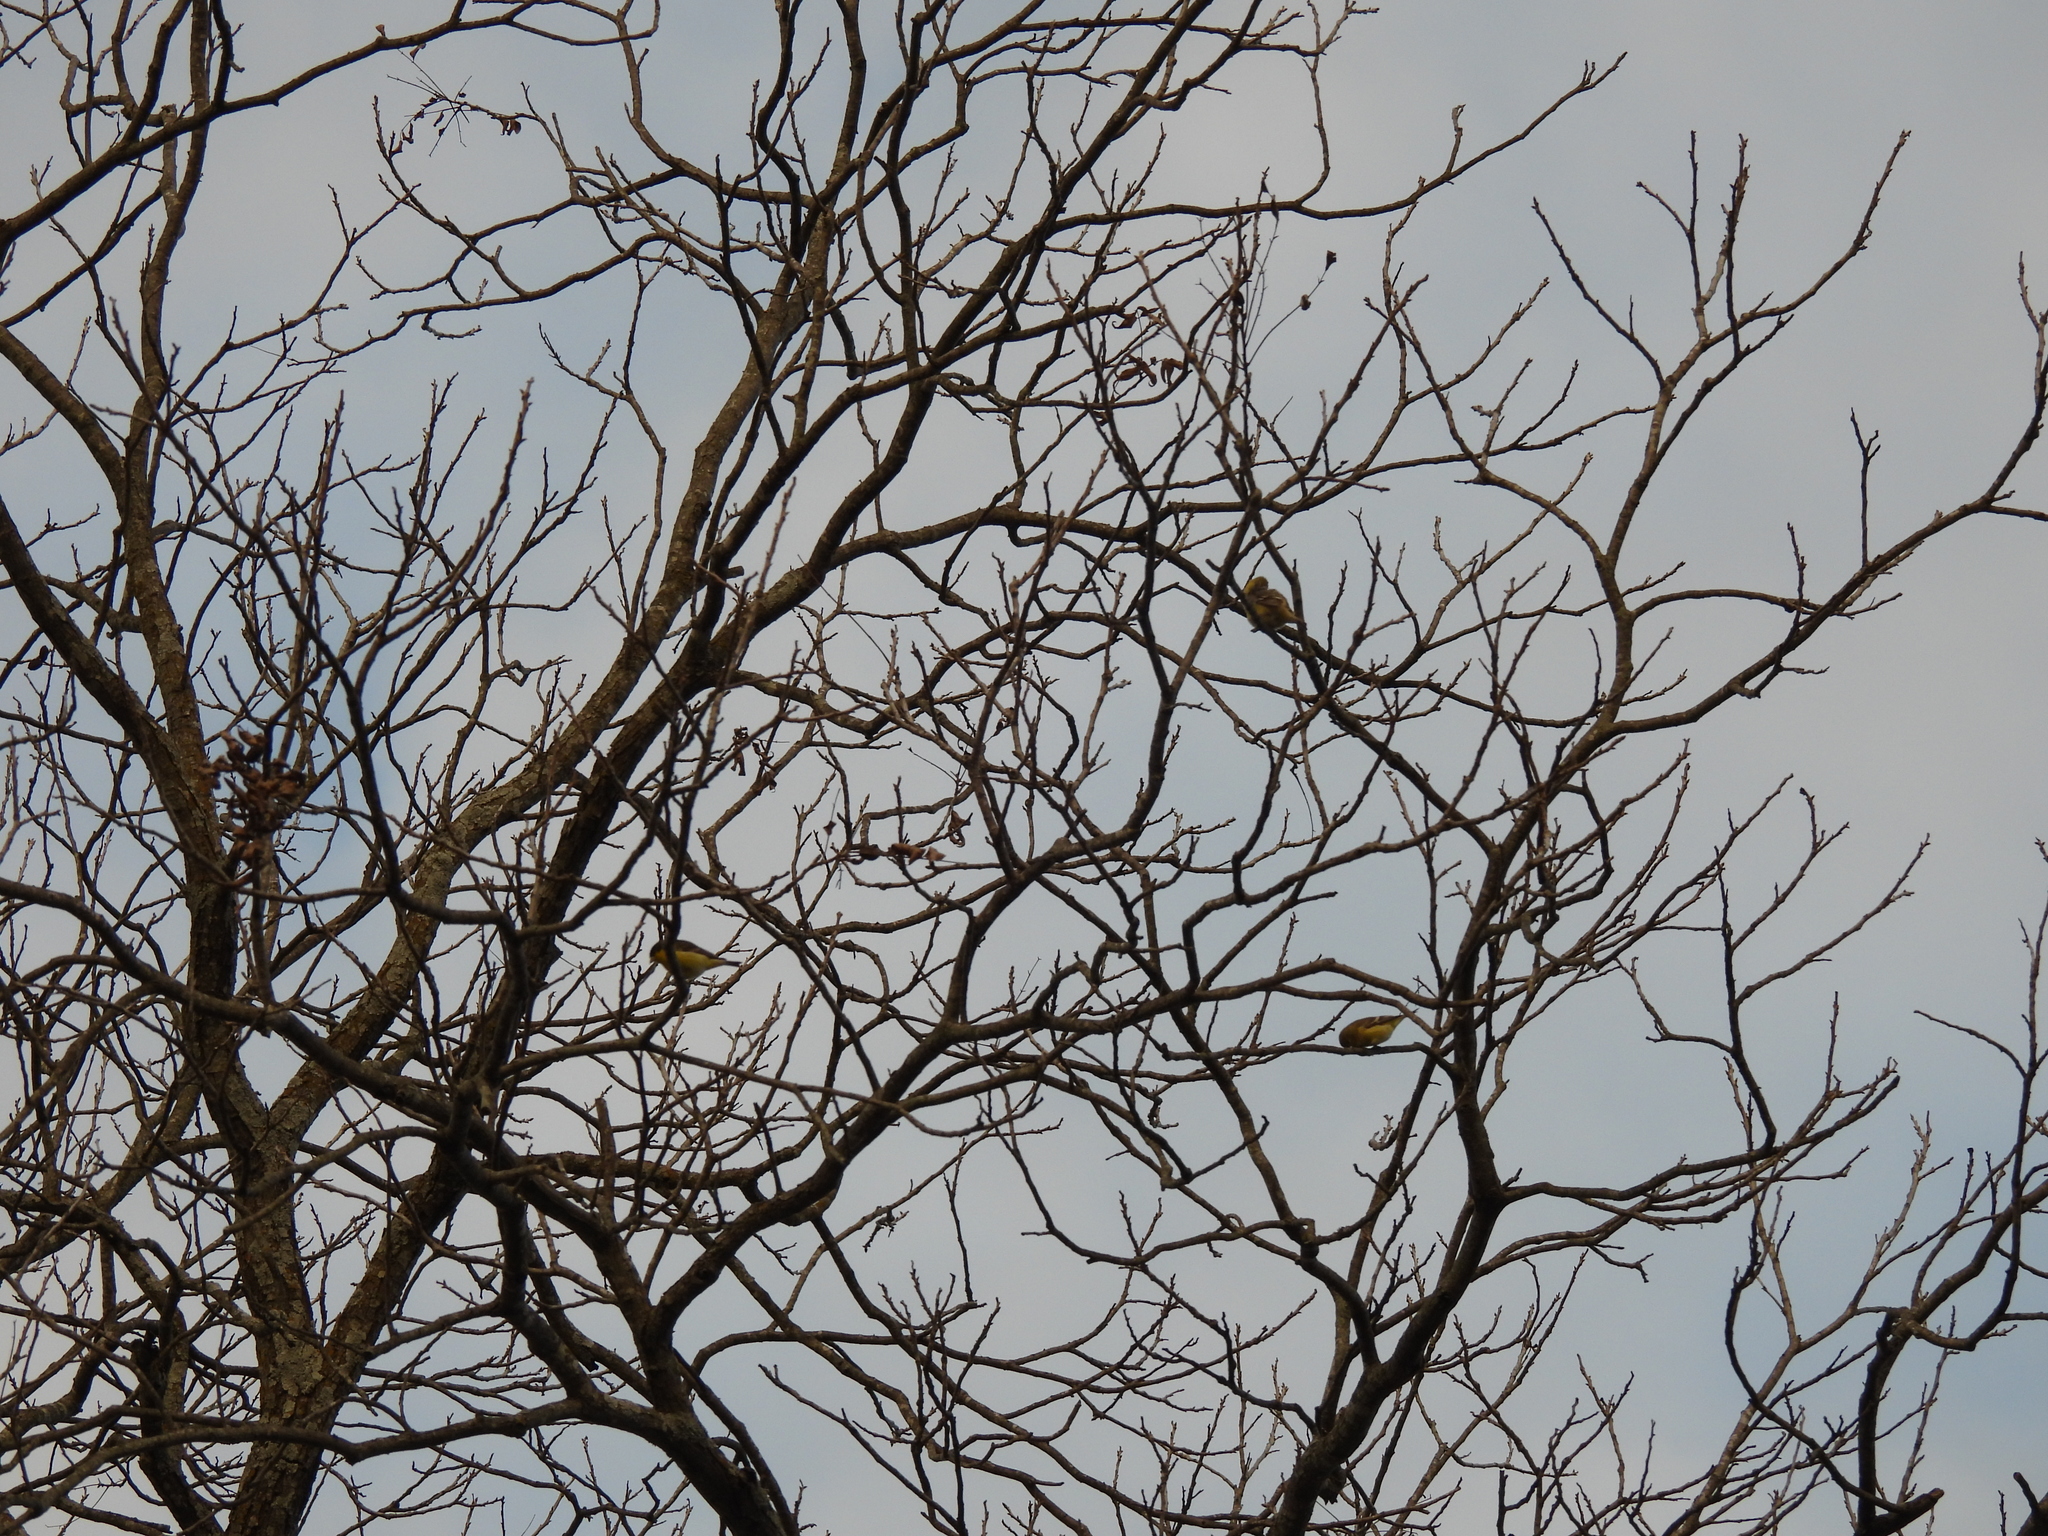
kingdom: Animalia
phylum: Chordata
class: Aves
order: Passeriformes
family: Fringillidae
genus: Spinus
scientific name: Spinus psaltria
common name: Lesser goldfinch
